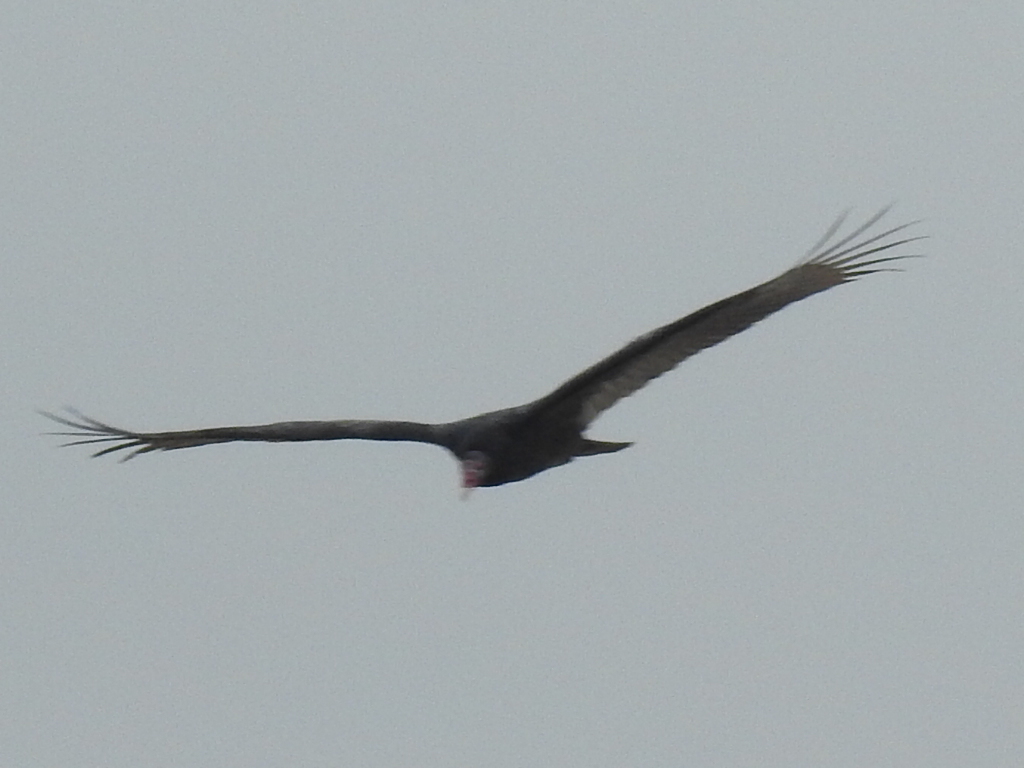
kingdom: Animalia
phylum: Chordata
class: Aves
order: Accipitriformes
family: Cathartidae
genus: Cathartes
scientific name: Cathartes aura
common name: Turkey vulture
